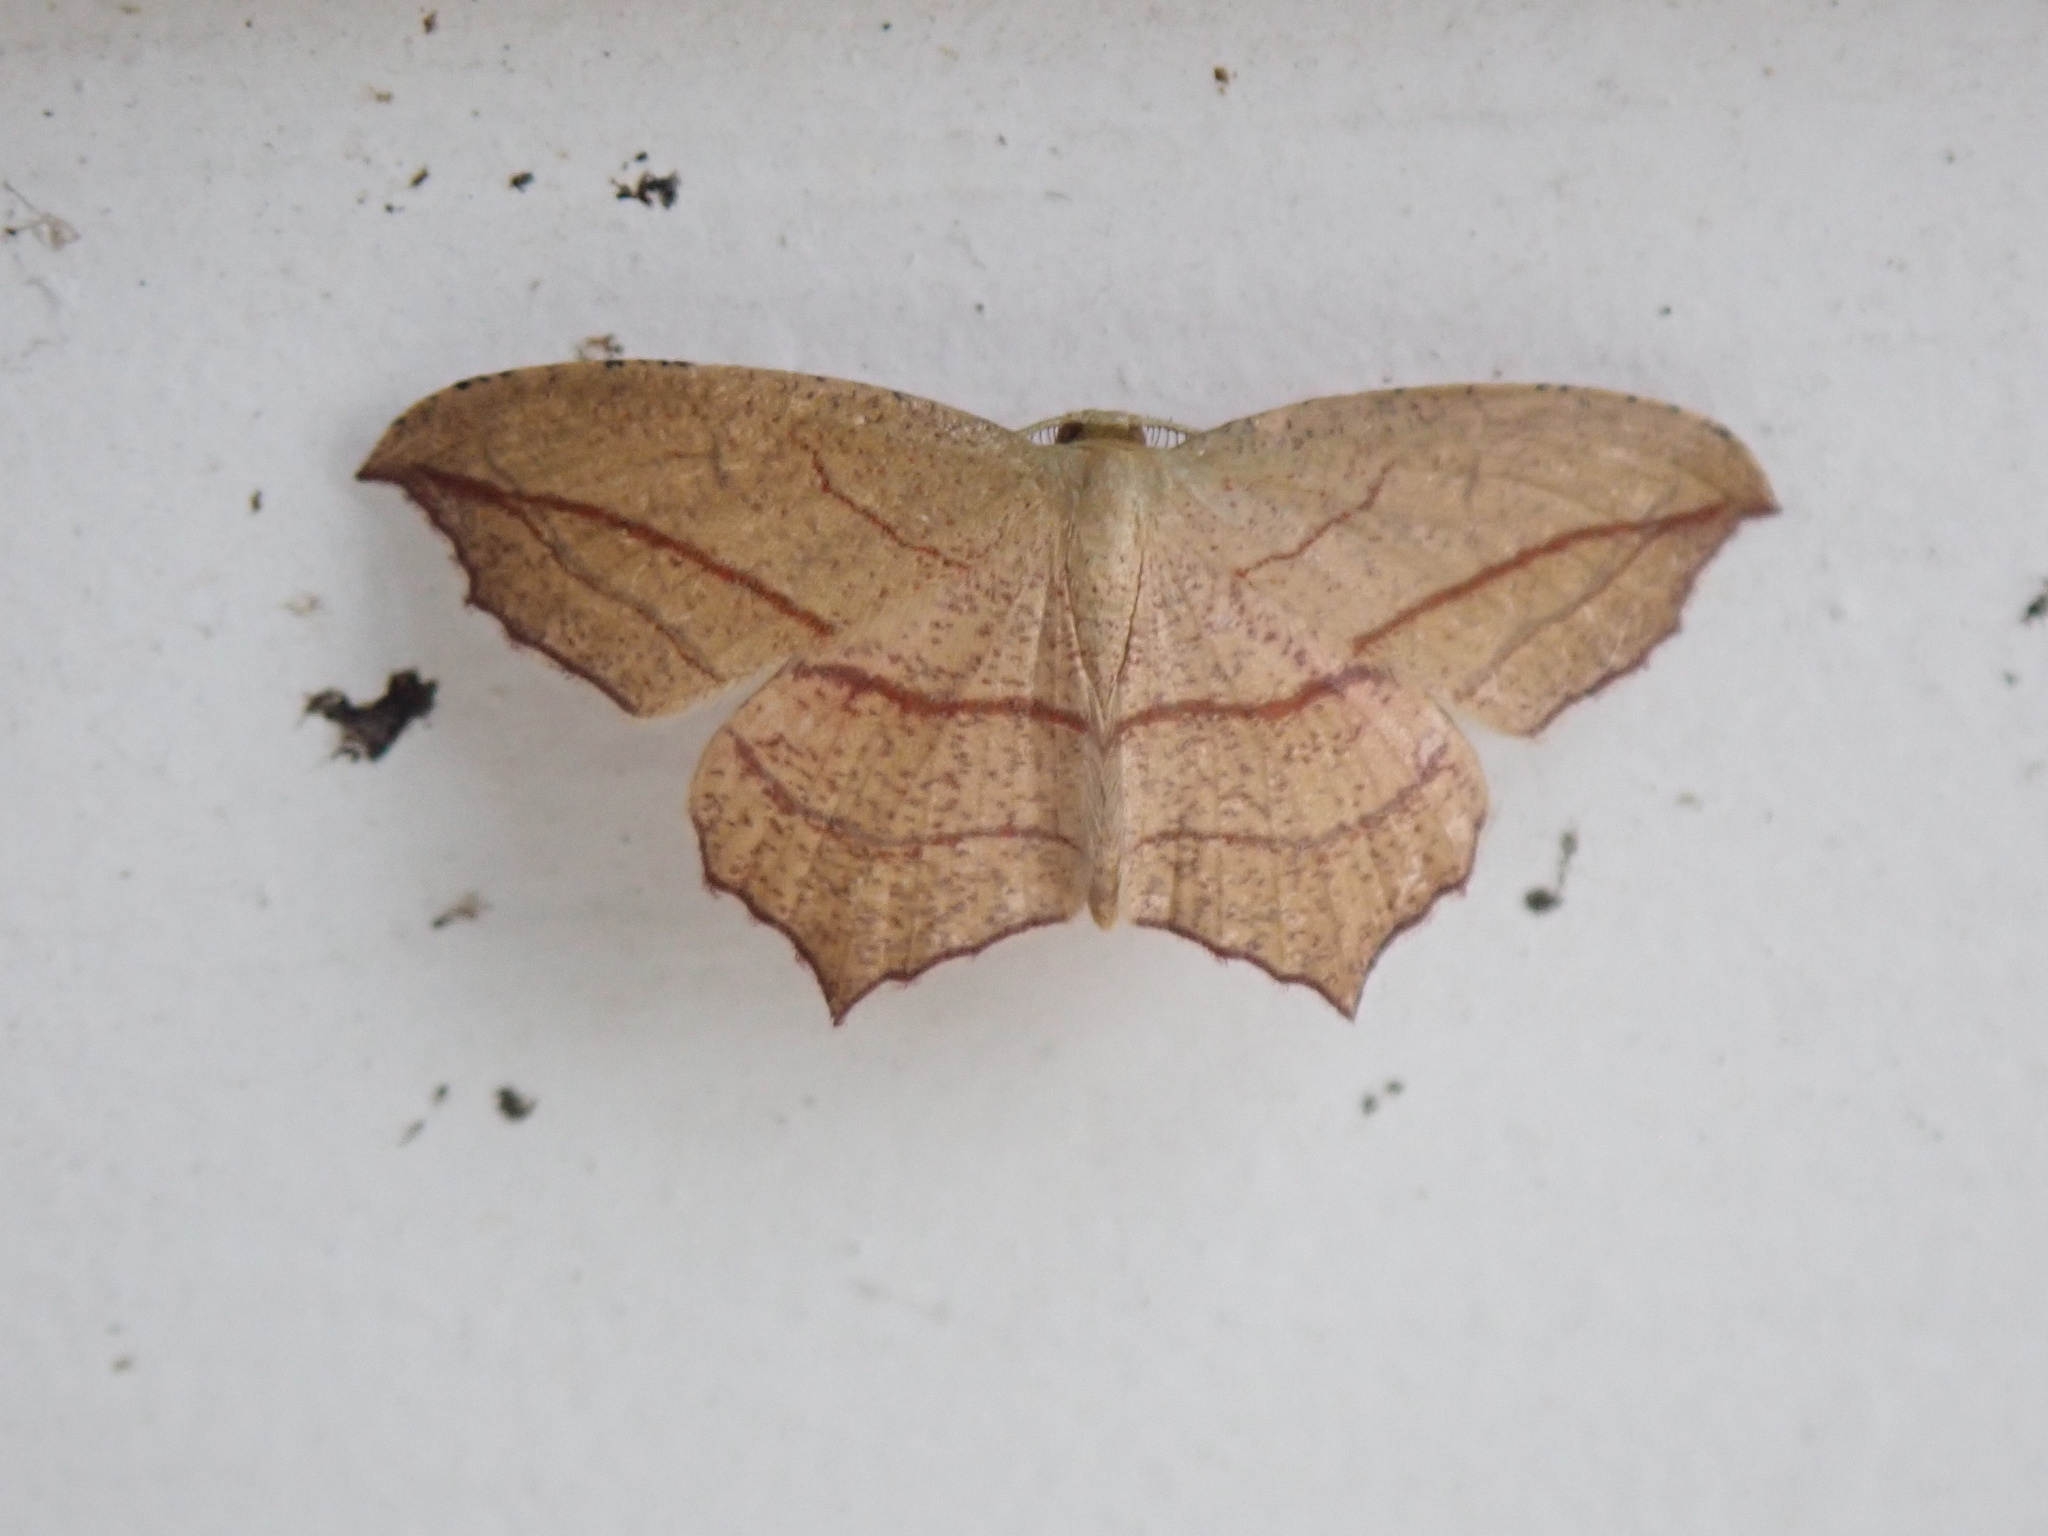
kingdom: Animalia
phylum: Arthropoda
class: Insecta
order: Lepidoptera
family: Geometridae
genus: Timandra
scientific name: Timandra amaturaria
